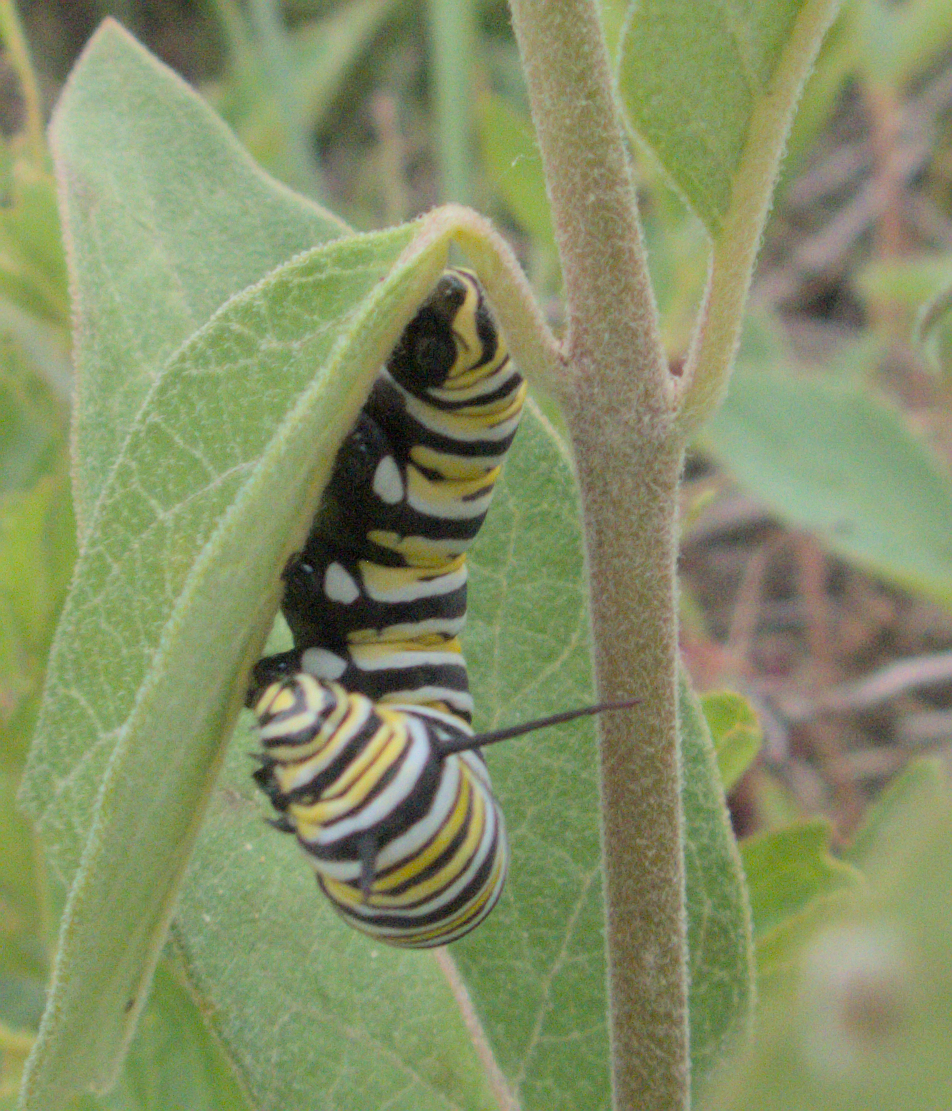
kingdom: Animalia
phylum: Arthropoda
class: Insecta
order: Lepidoptera
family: Nymphalidae
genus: Danaus
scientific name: Danaus plexippus
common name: Monarch
